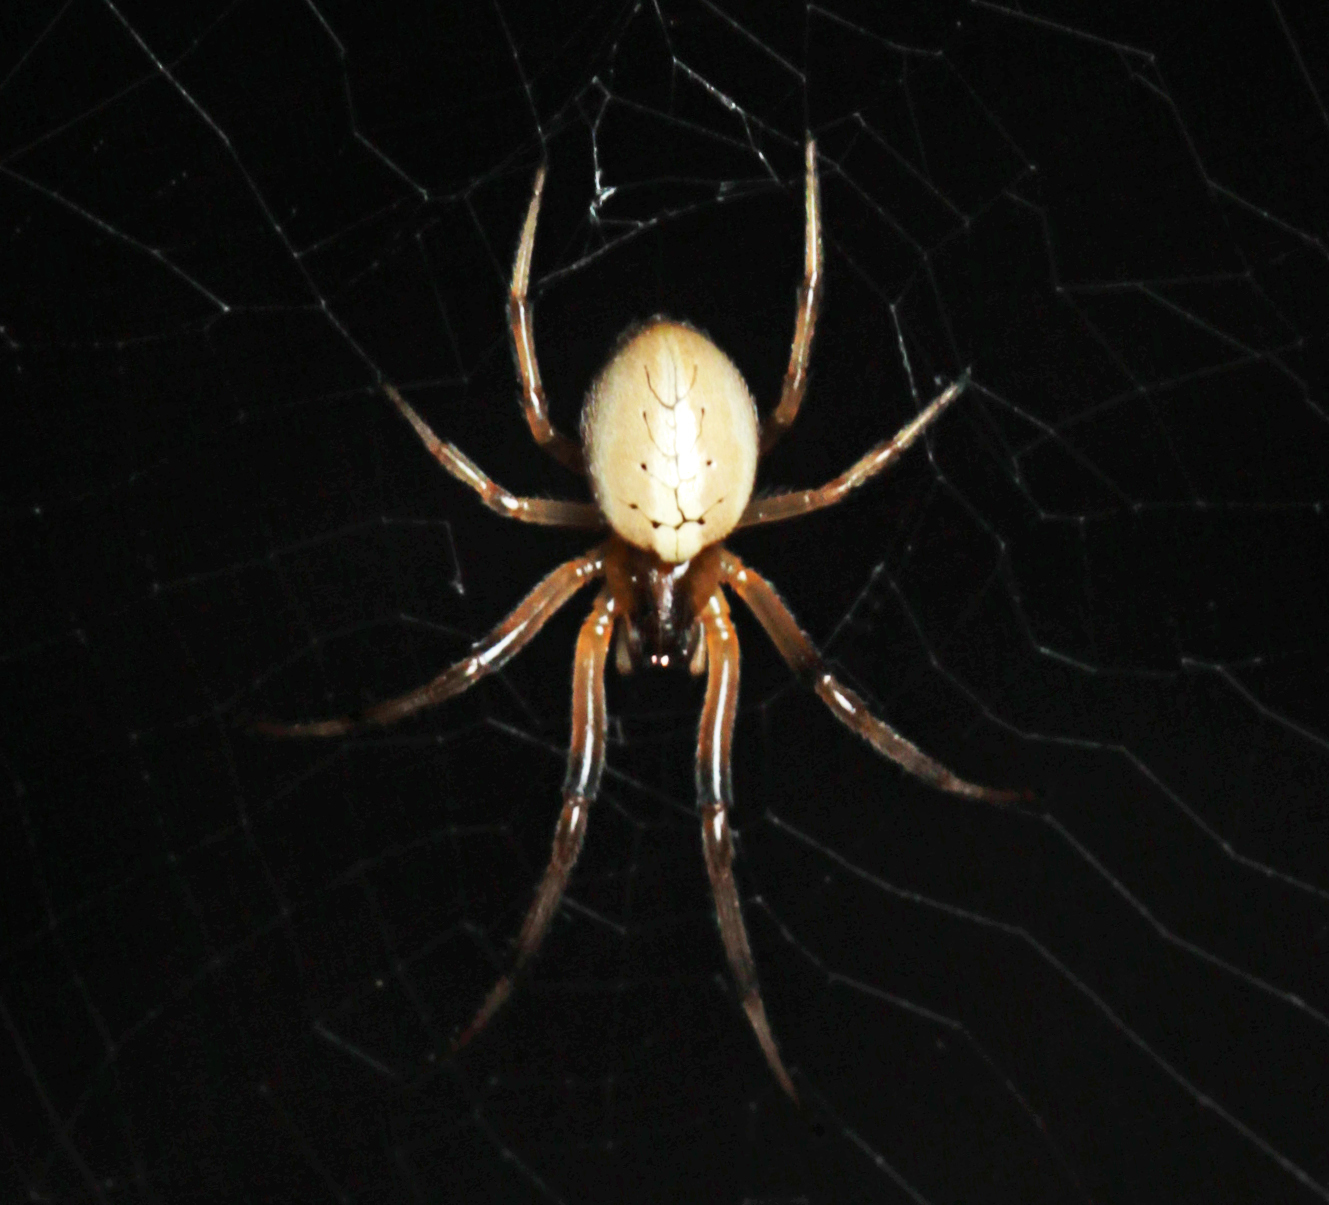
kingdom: Animalia
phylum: Arthropoda
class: Arachnida
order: Araneae
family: Araneidae
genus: Deliochus
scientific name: Deliochus idoneus
